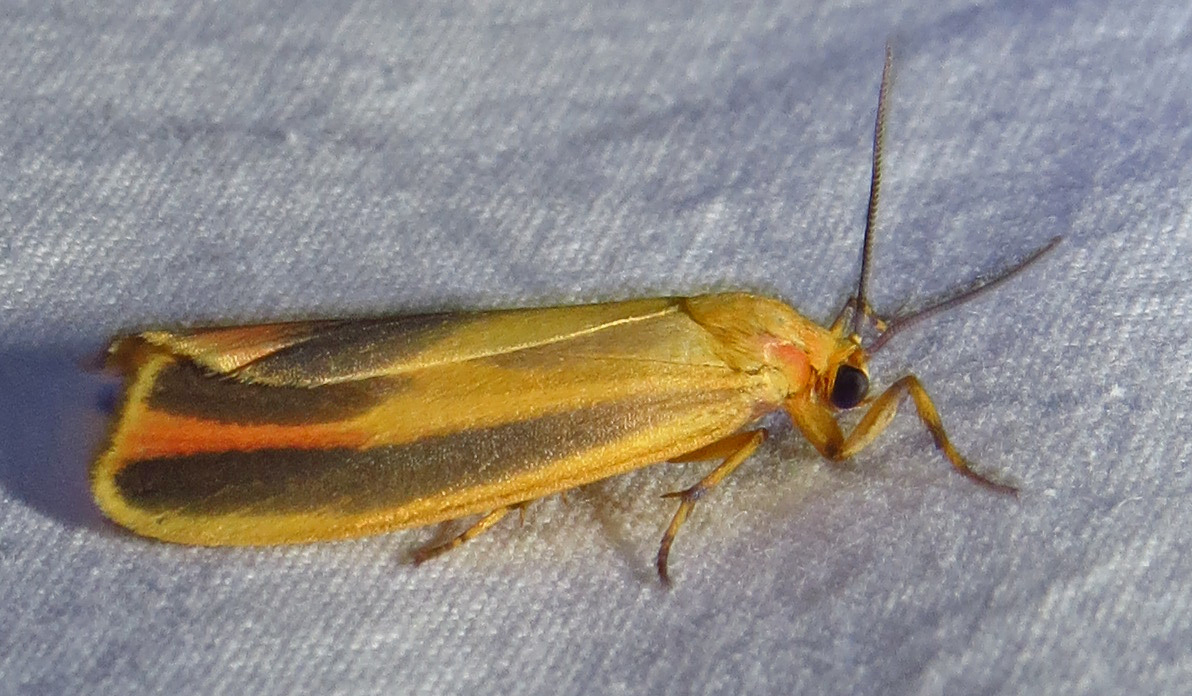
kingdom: Animalia
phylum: Arthropoda
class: Insecta
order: Lepidoptera
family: Erebidae
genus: Hypoprepia
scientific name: Hypoprepia fucosa
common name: Painted lichen moth
